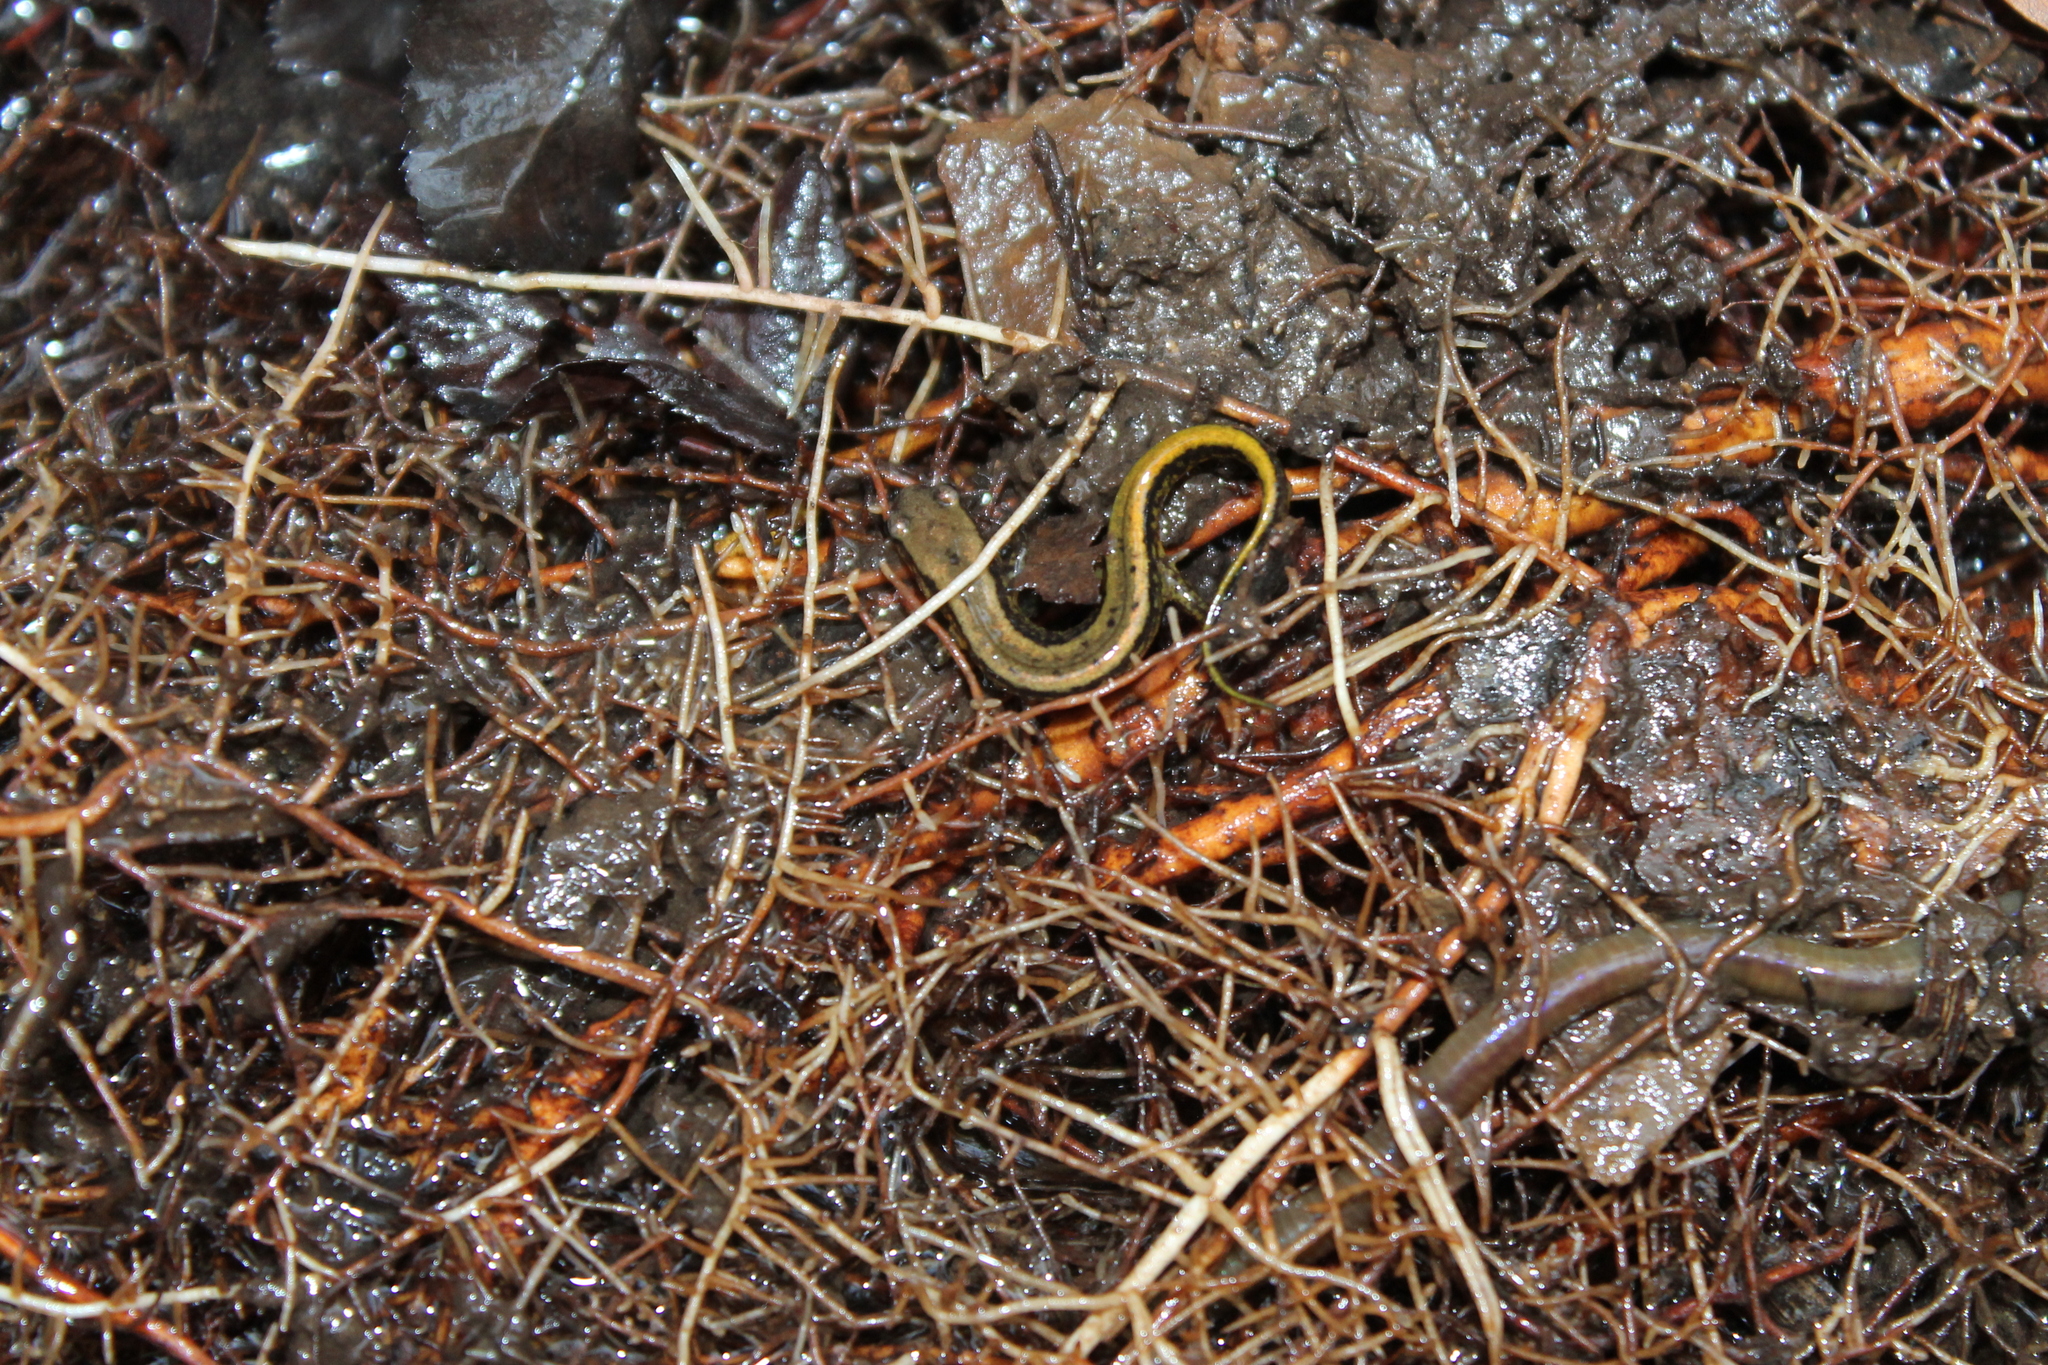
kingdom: Animalia
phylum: Chordata
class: Amphibia
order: Caudata
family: Plethodontidae
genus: Eurycea
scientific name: Eurycea cirrigera
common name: Southern two-lined salamander
